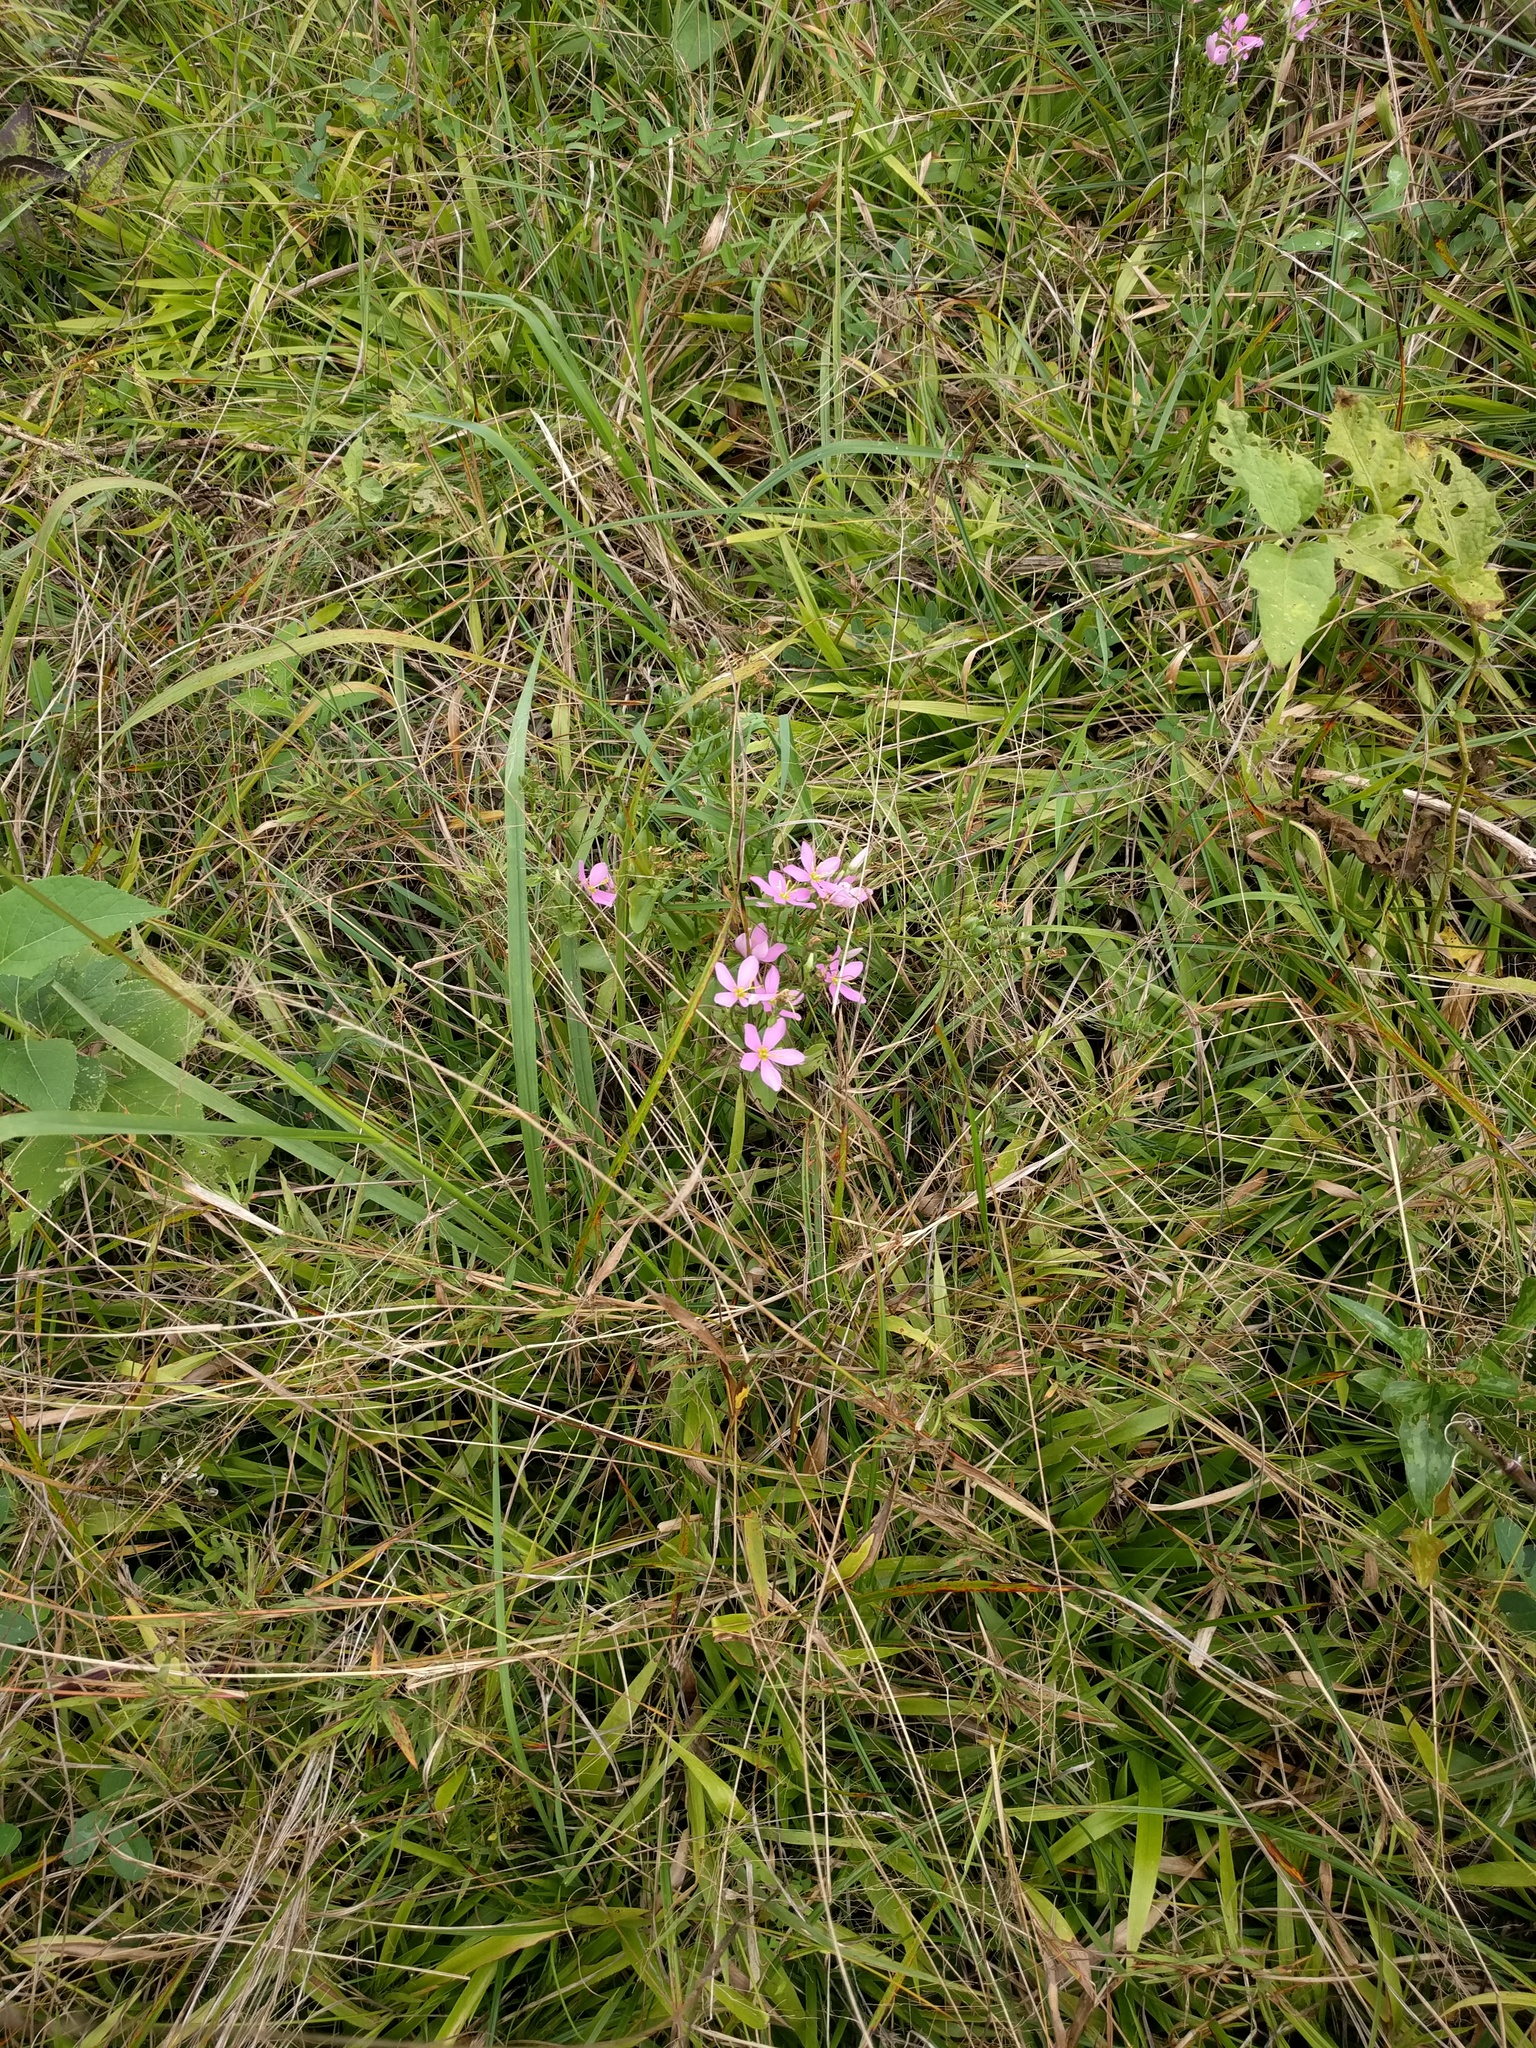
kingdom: Plantae
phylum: Tracheophyta
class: Magnoliopsida
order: Gentianales
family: Gentianaceae
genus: Sabatia
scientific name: Sabatia angularis
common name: Rose-pink
